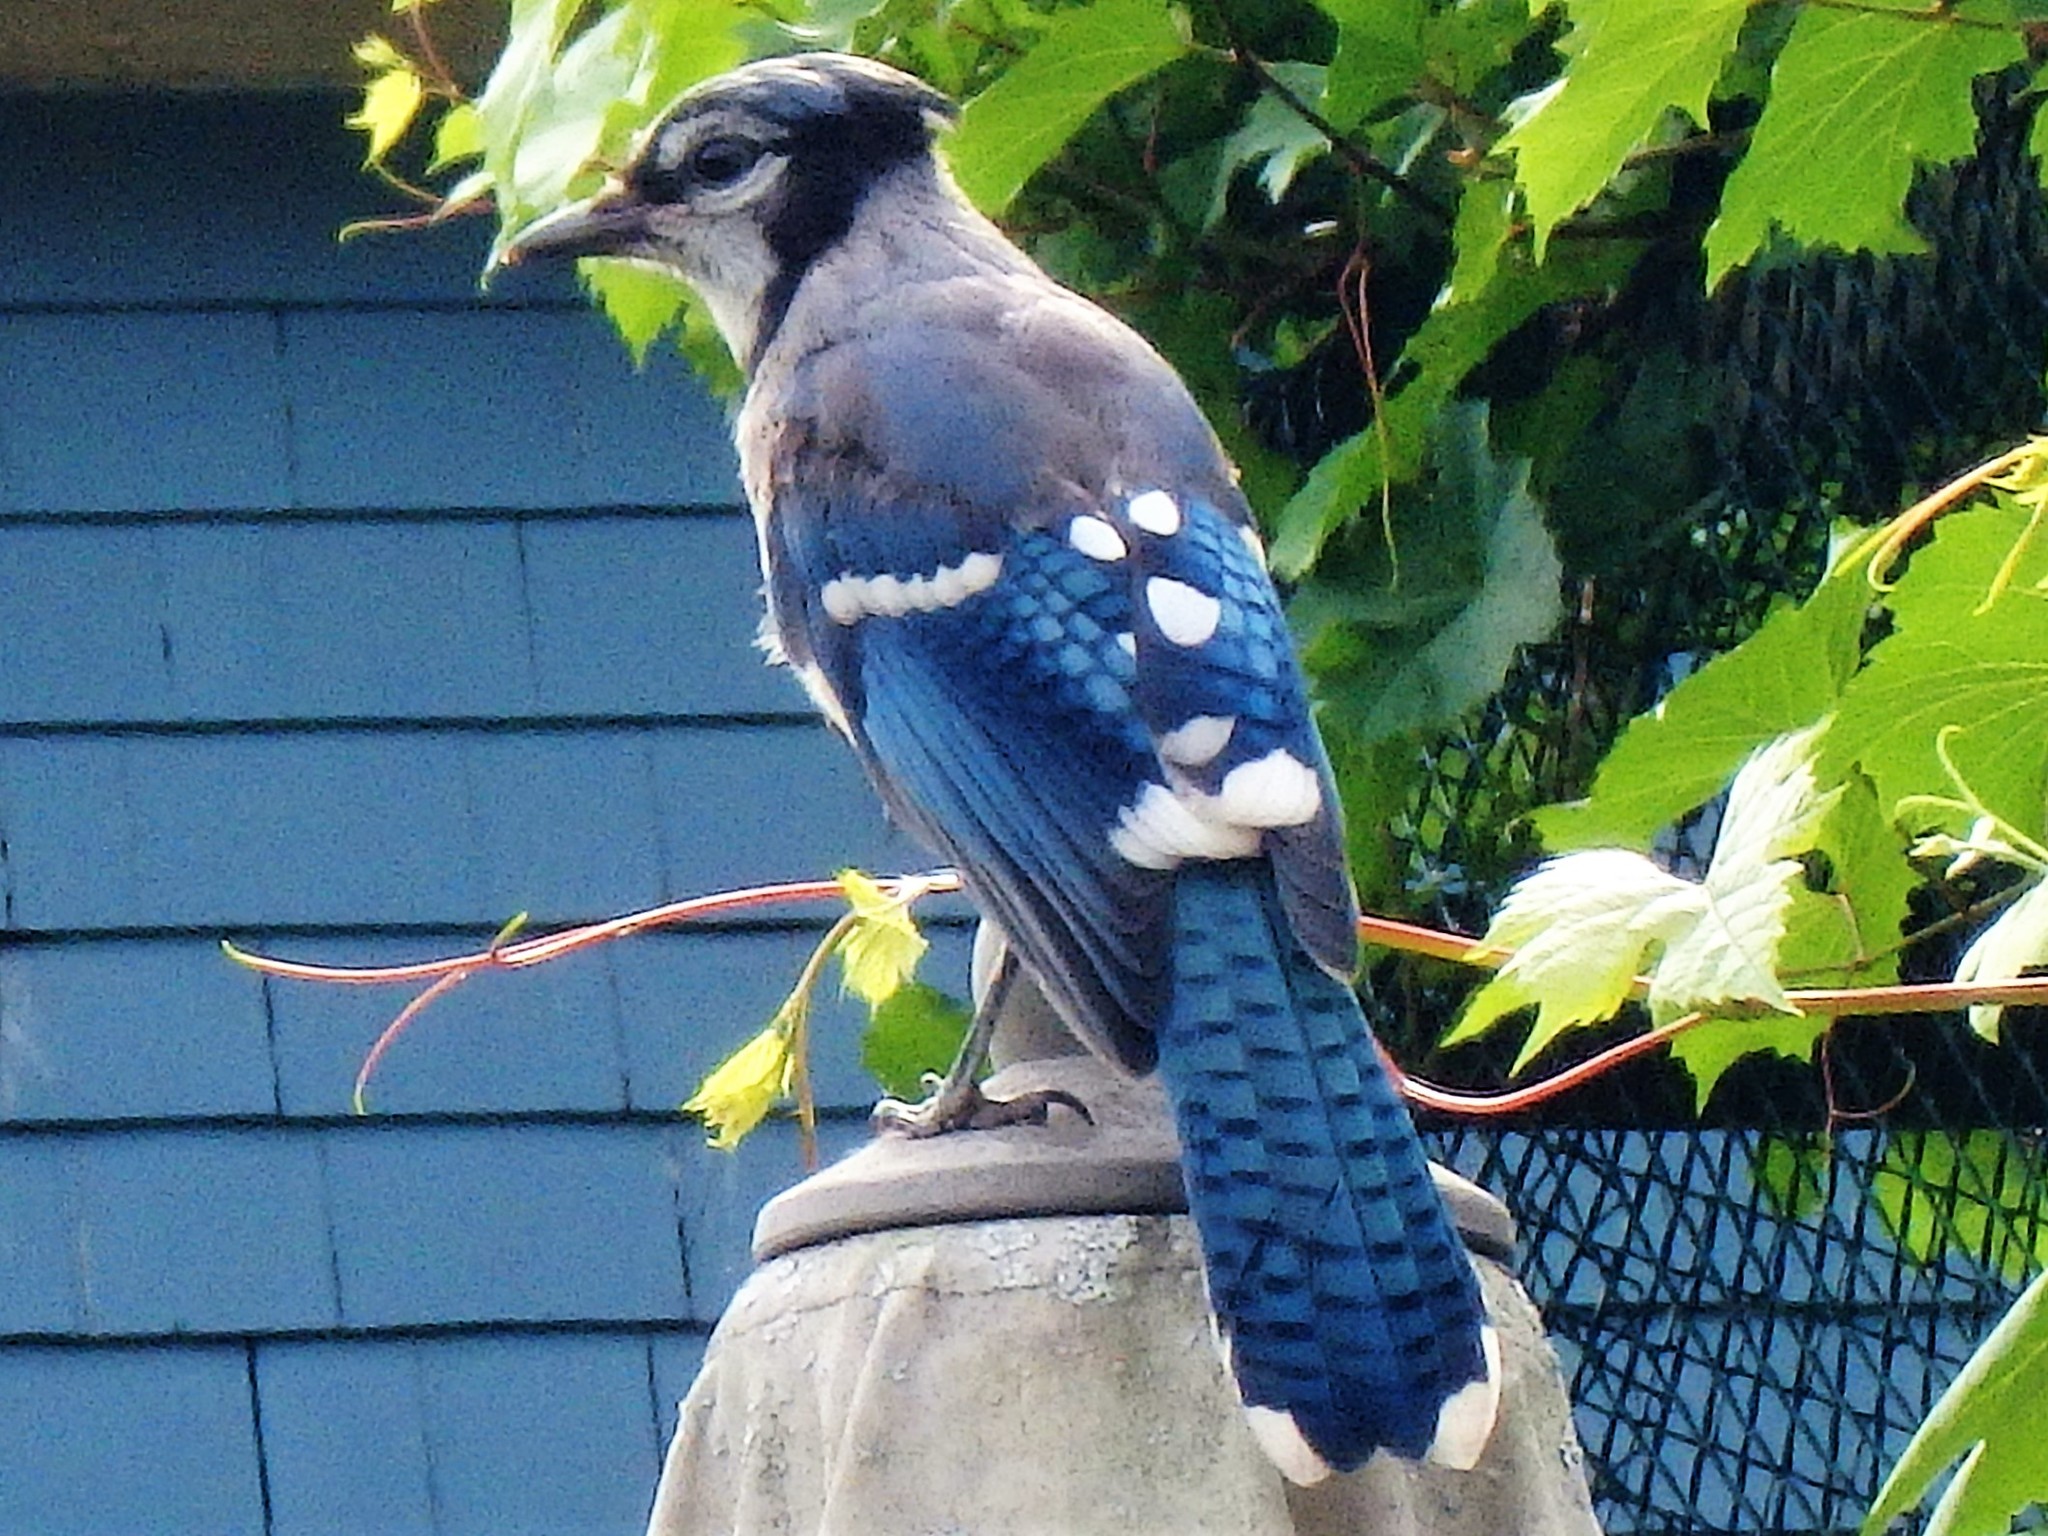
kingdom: Animalia
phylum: Chordata
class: Aves
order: Passeriformes
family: Corvidae
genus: Cyanocitta
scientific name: Cyanocitta cristata
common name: Blue jay
